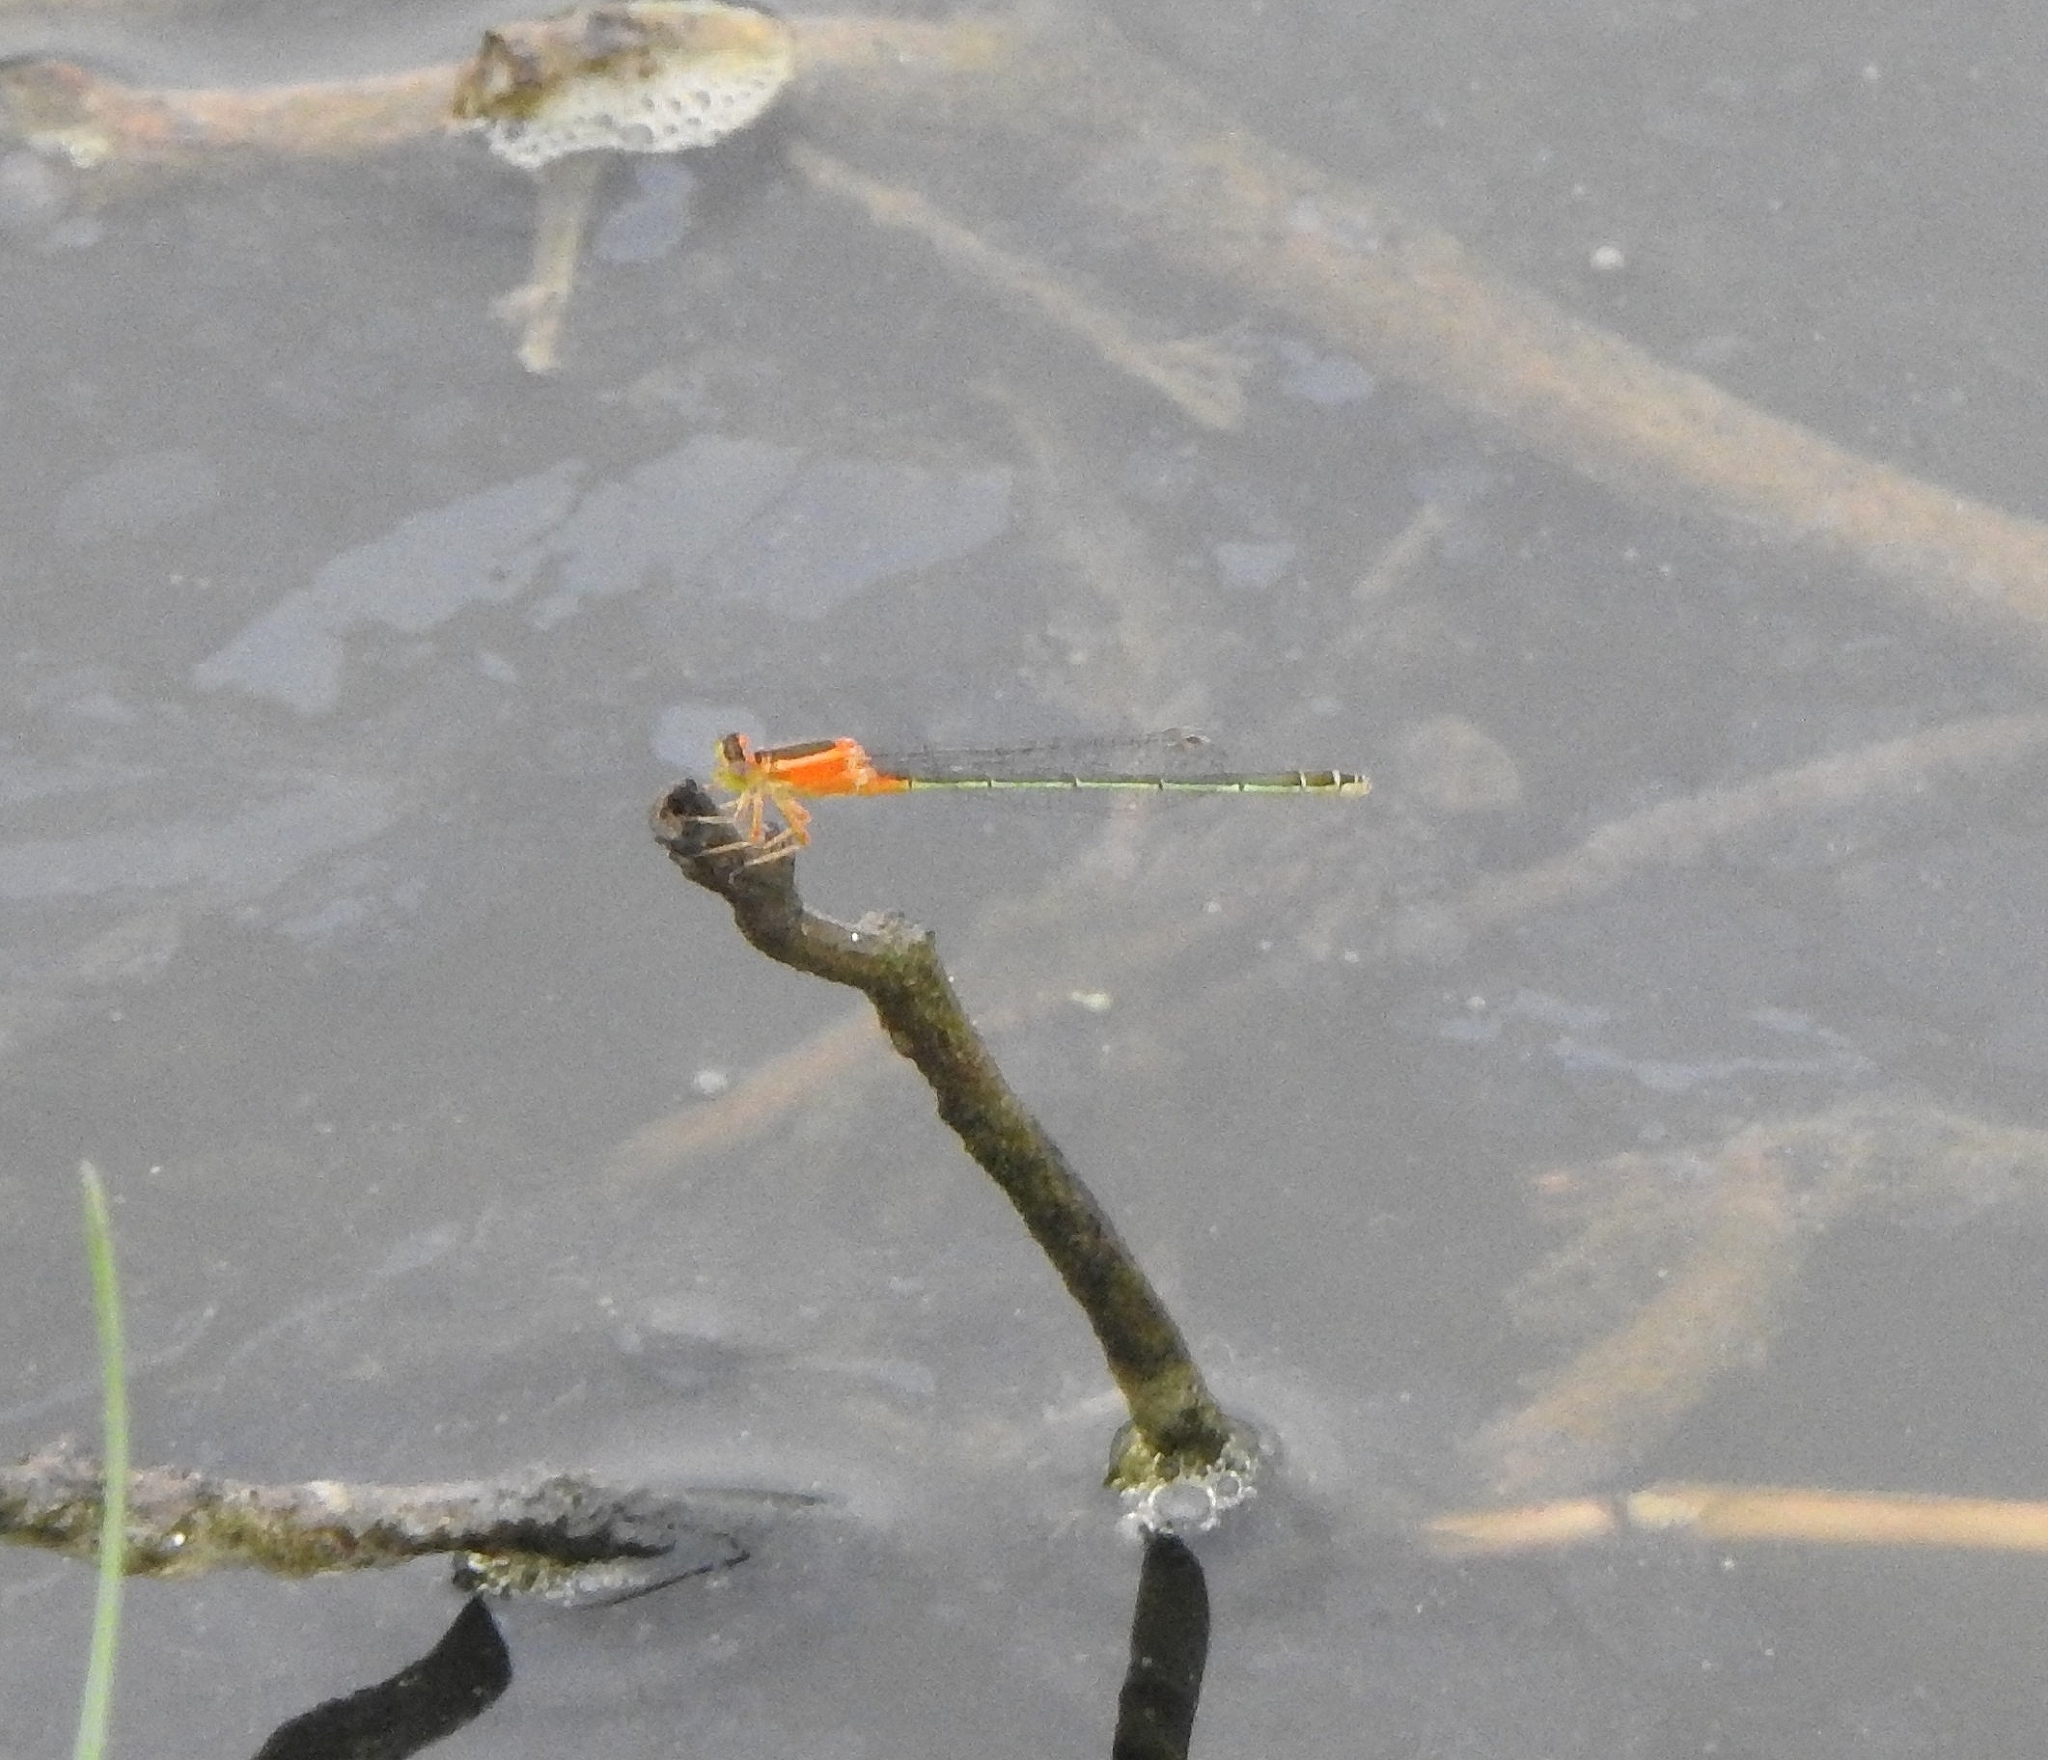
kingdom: Animalia
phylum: Arthropoda
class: Insecta
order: Odonata
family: Coenagrionidae
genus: Ischnura
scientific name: Ischnura senegalensis
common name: Tropical bluetail
